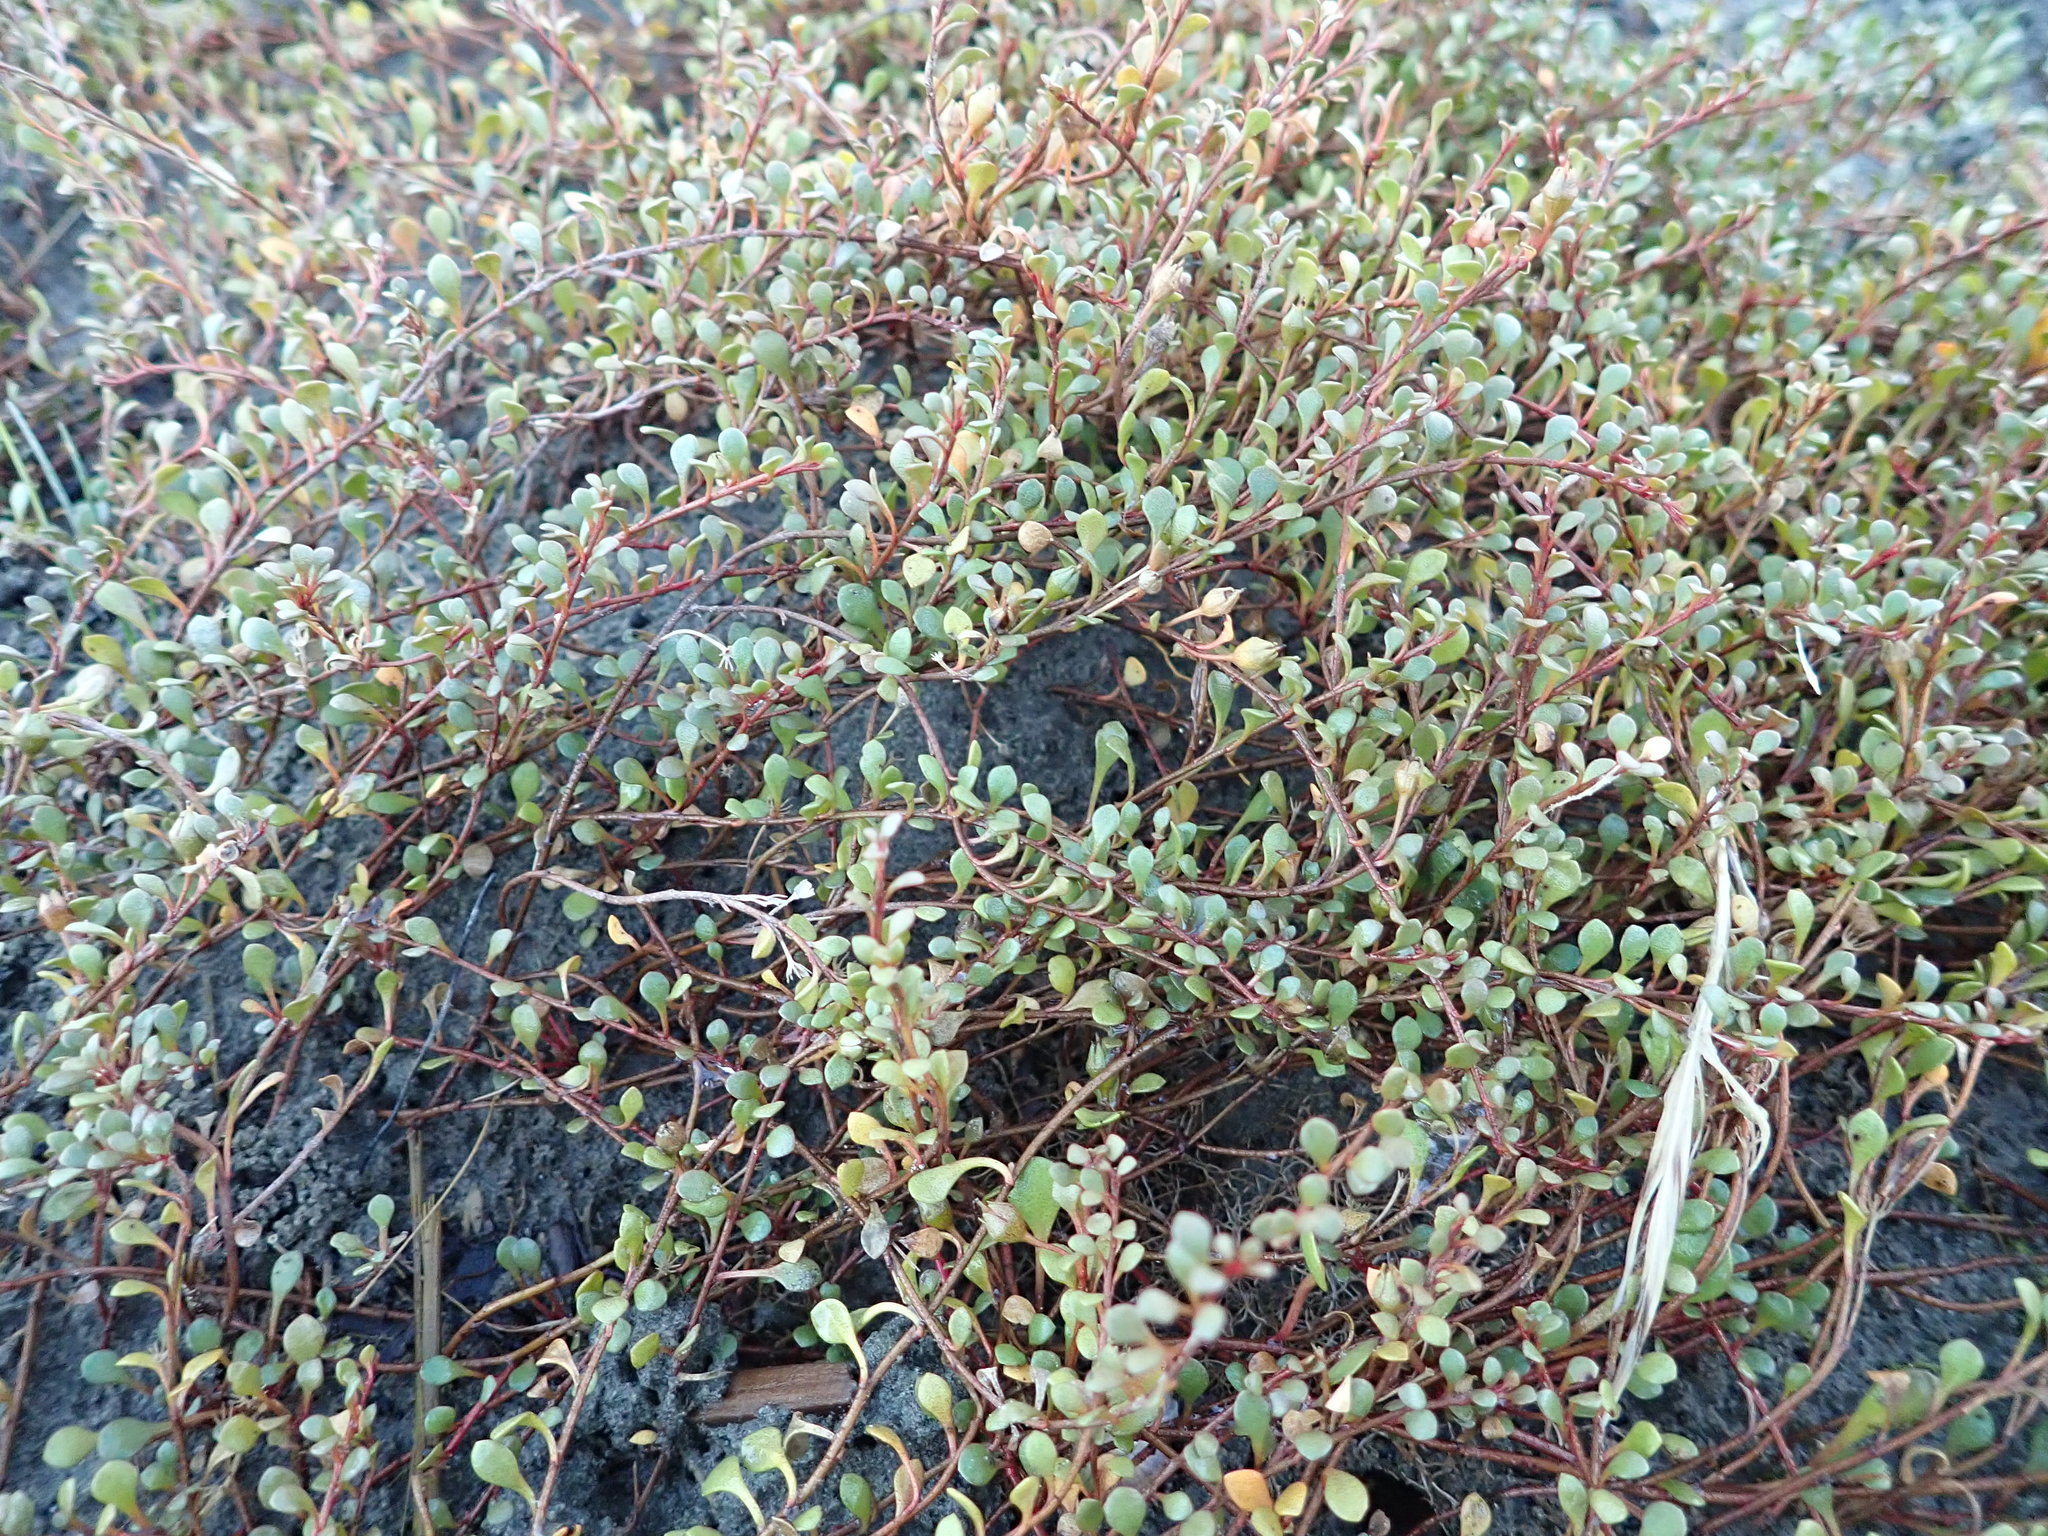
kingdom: Plantae
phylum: Tracheophyta
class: Magnoliopsida
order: Ericales
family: Primulaceae
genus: Samolus
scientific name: Samolus repens
